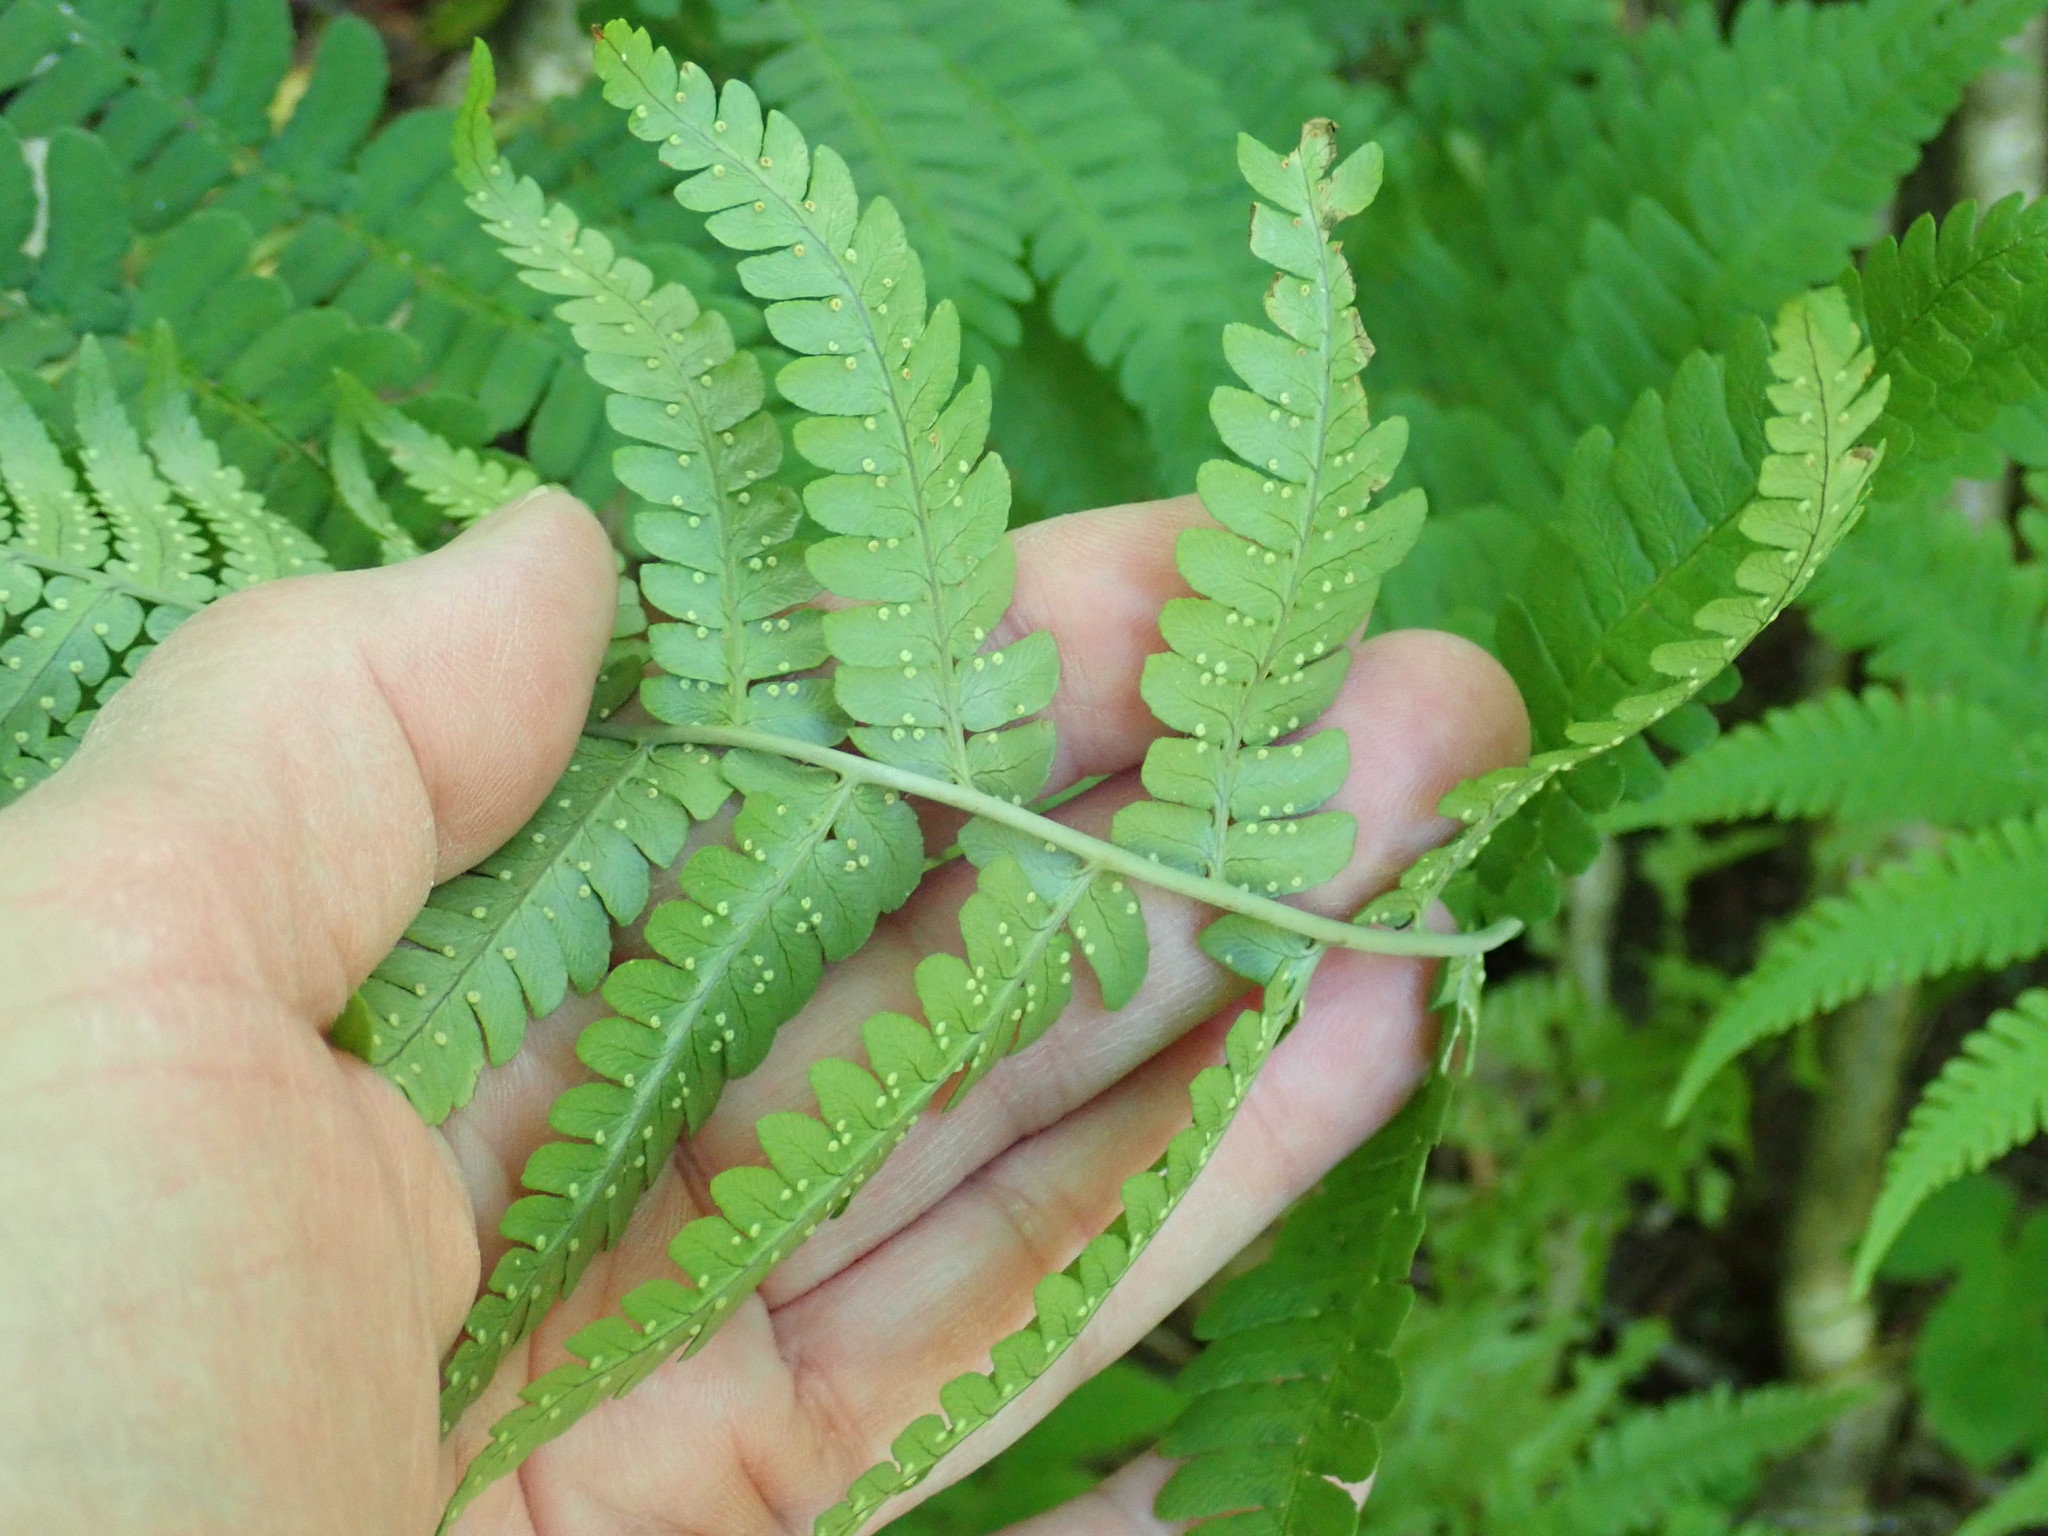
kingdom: Plantae
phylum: Tracheophyta
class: Polypodiopsida
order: Polypodiales
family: Dryopteridaceae
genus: Dryopteris
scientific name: Dryopteris marginalis
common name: Marginal wood fern
